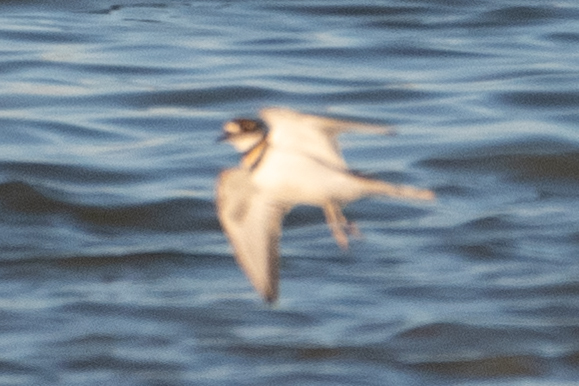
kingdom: Animalia
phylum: Chordata
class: Aves
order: Charadriiformes
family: Charadriidae
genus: Charadrius
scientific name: Charadrius vociferus
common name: Killdeer
